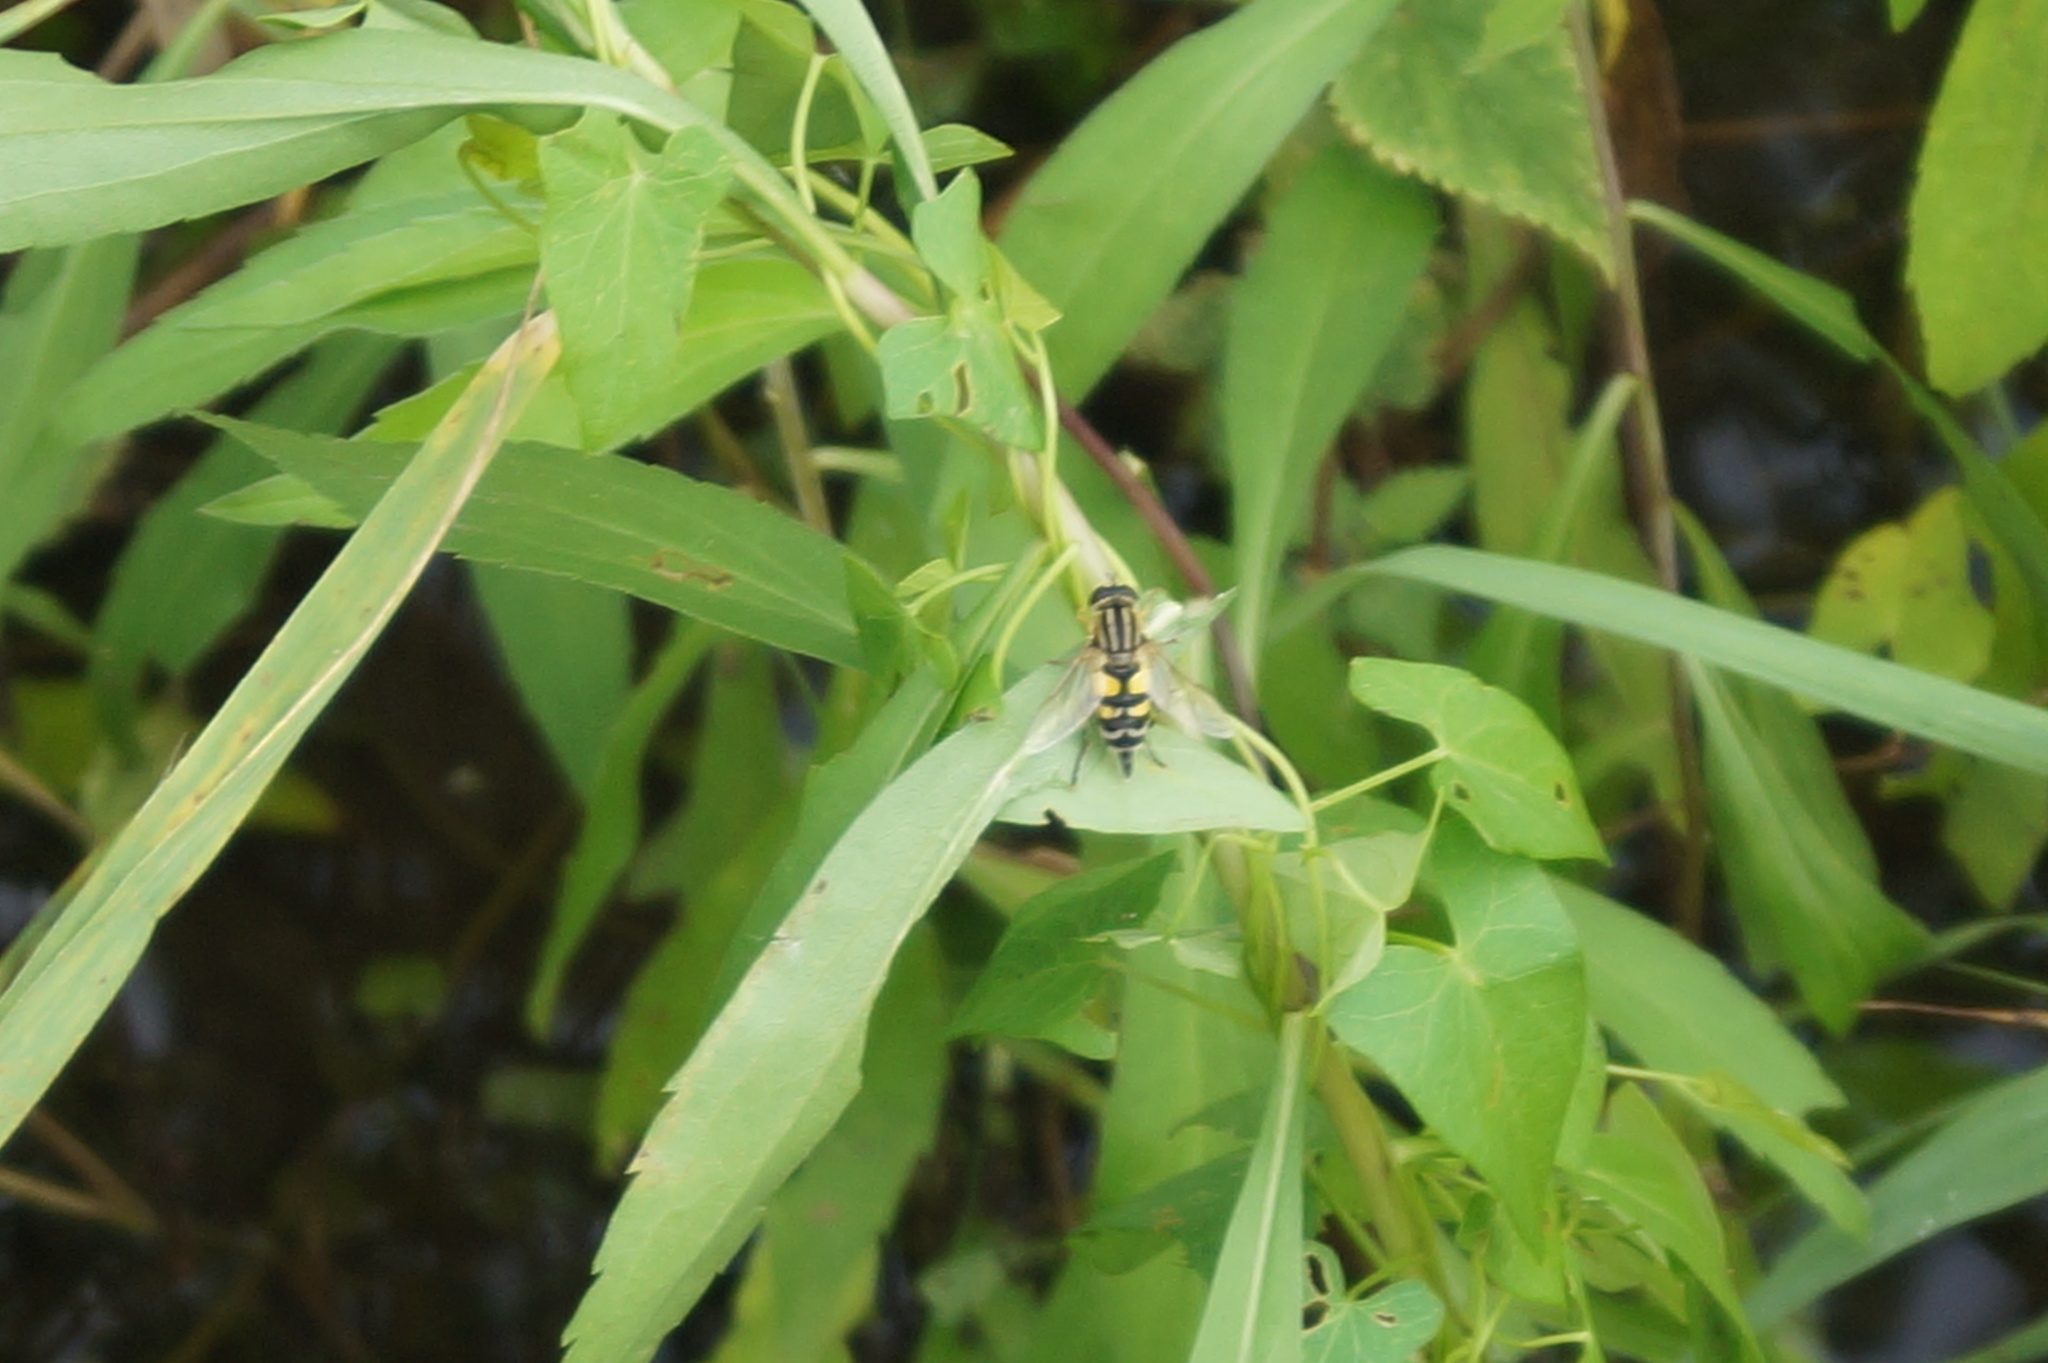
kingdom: Animalia
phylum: Arthropoda
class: Insecta
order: Diptera
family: Syrphidae
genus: Helophilus
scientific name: Helophilus trivittatus
